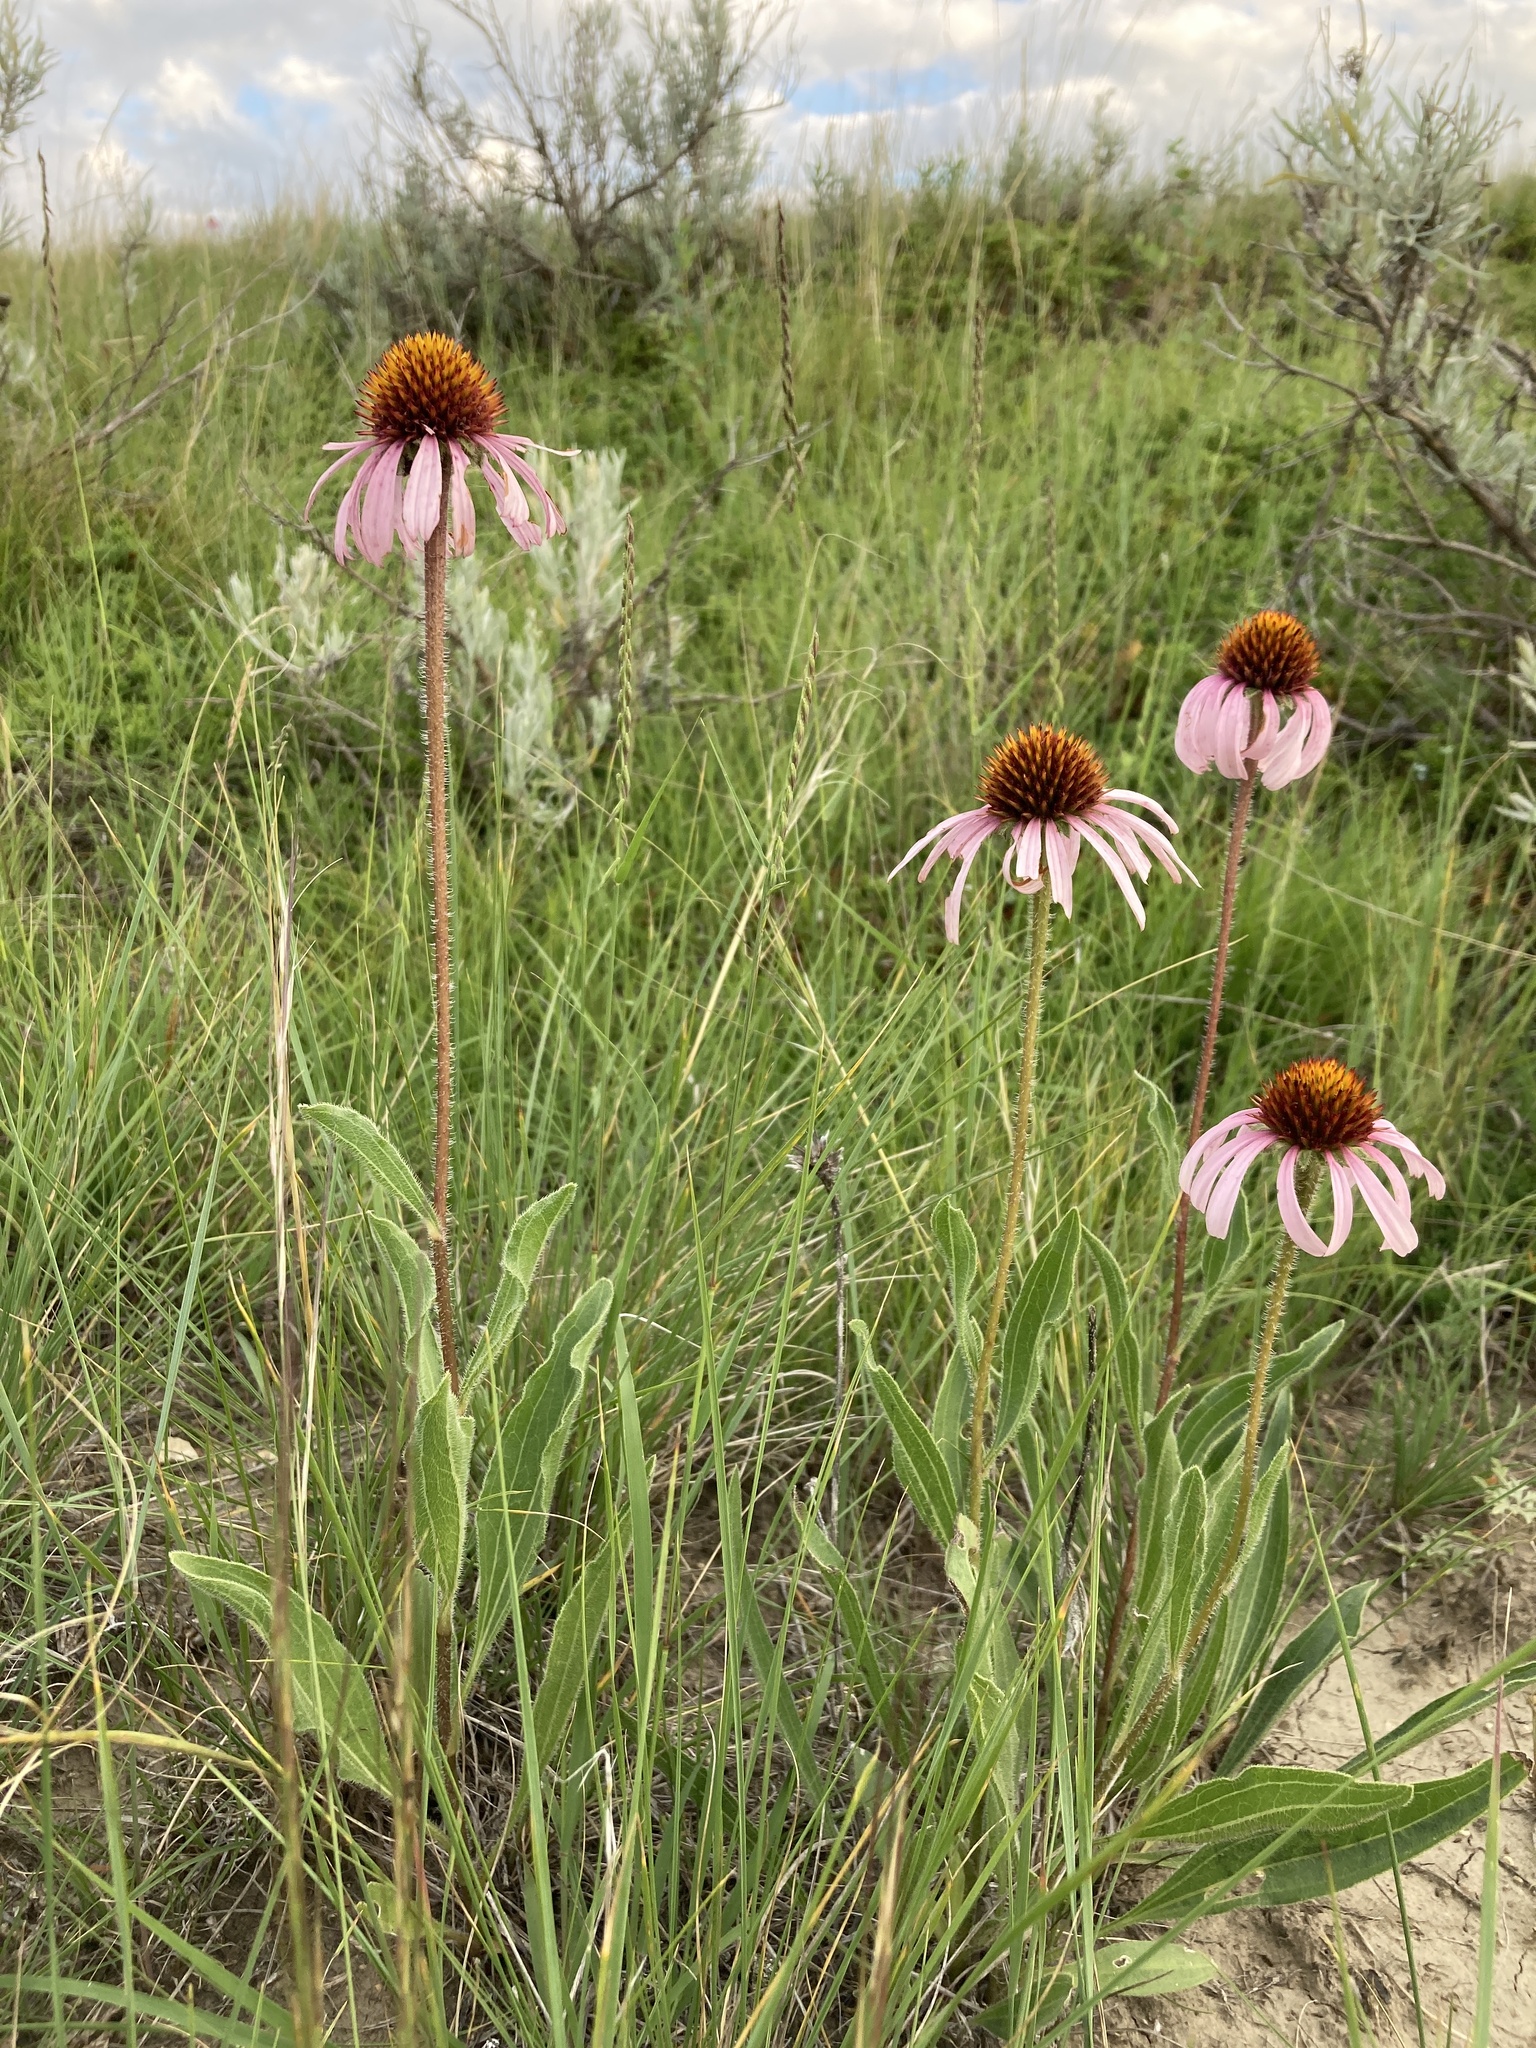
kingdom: Plantae
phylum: Tracheophyta
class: Magnoliopsida
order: Asterales
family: Asteraceae
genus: Echinacea
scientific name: Echinacea angustifolia
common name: Black-sampson echinacea
